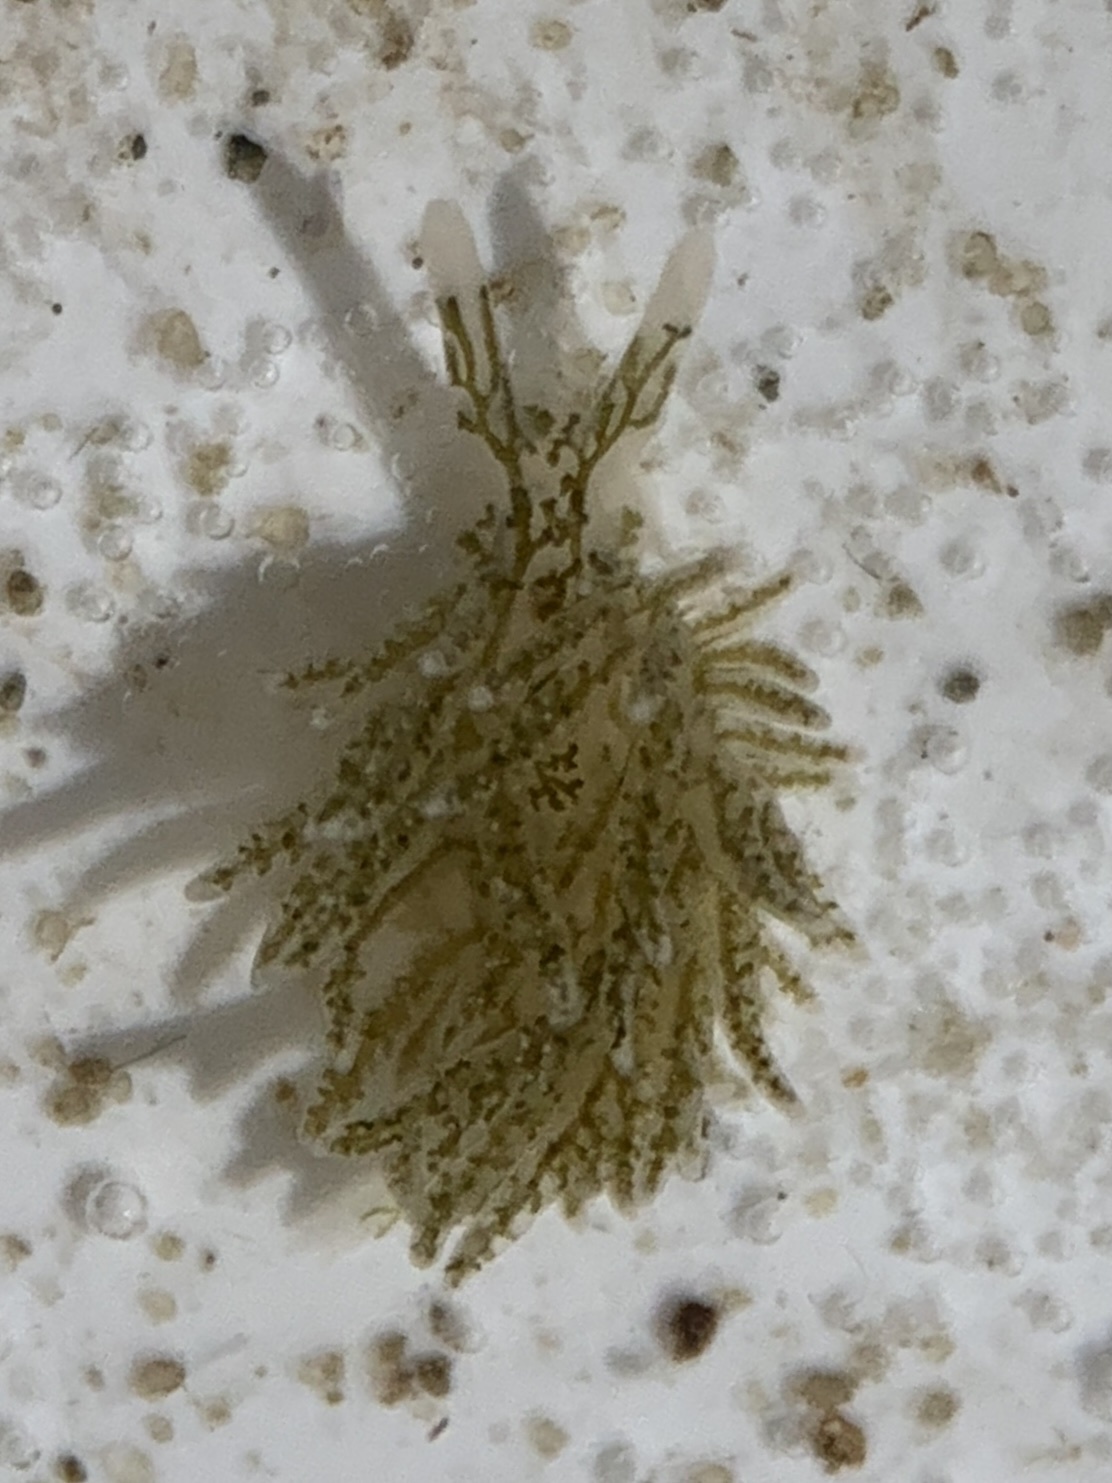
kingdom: Animalia
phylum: Mollusca
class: Gastropoda
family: Limapontiidae
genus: Placida
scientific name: Placida dendritica
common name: Dendritic nudibranch
